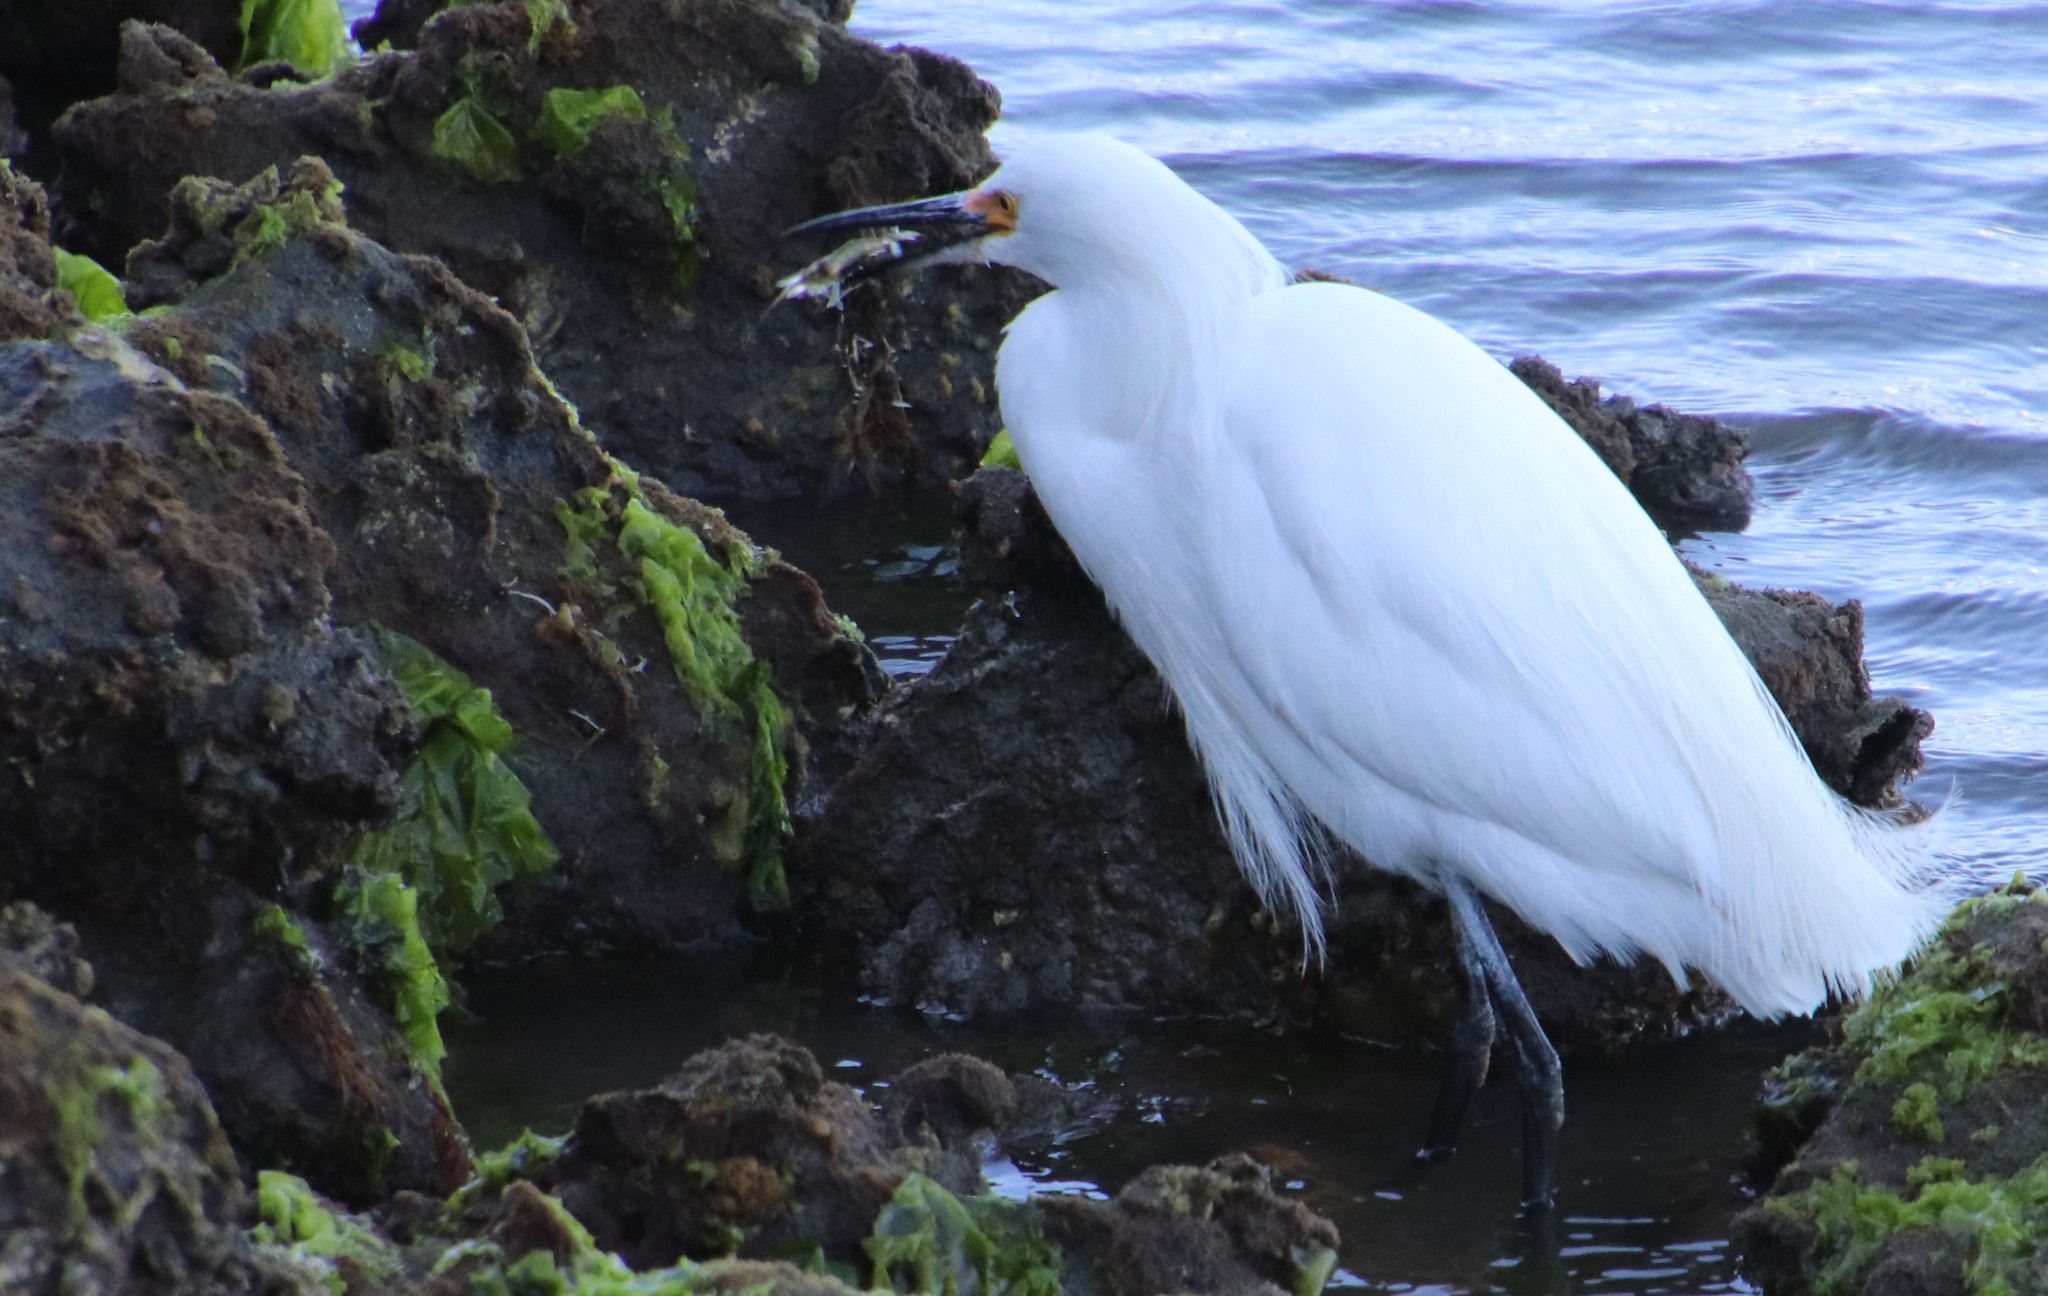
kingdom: Animalia
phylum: Chordata
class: Aves
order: Pelecaniformes
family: Ardeidae
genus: Egretta
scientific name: Egretta thula
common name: Snowy egret
